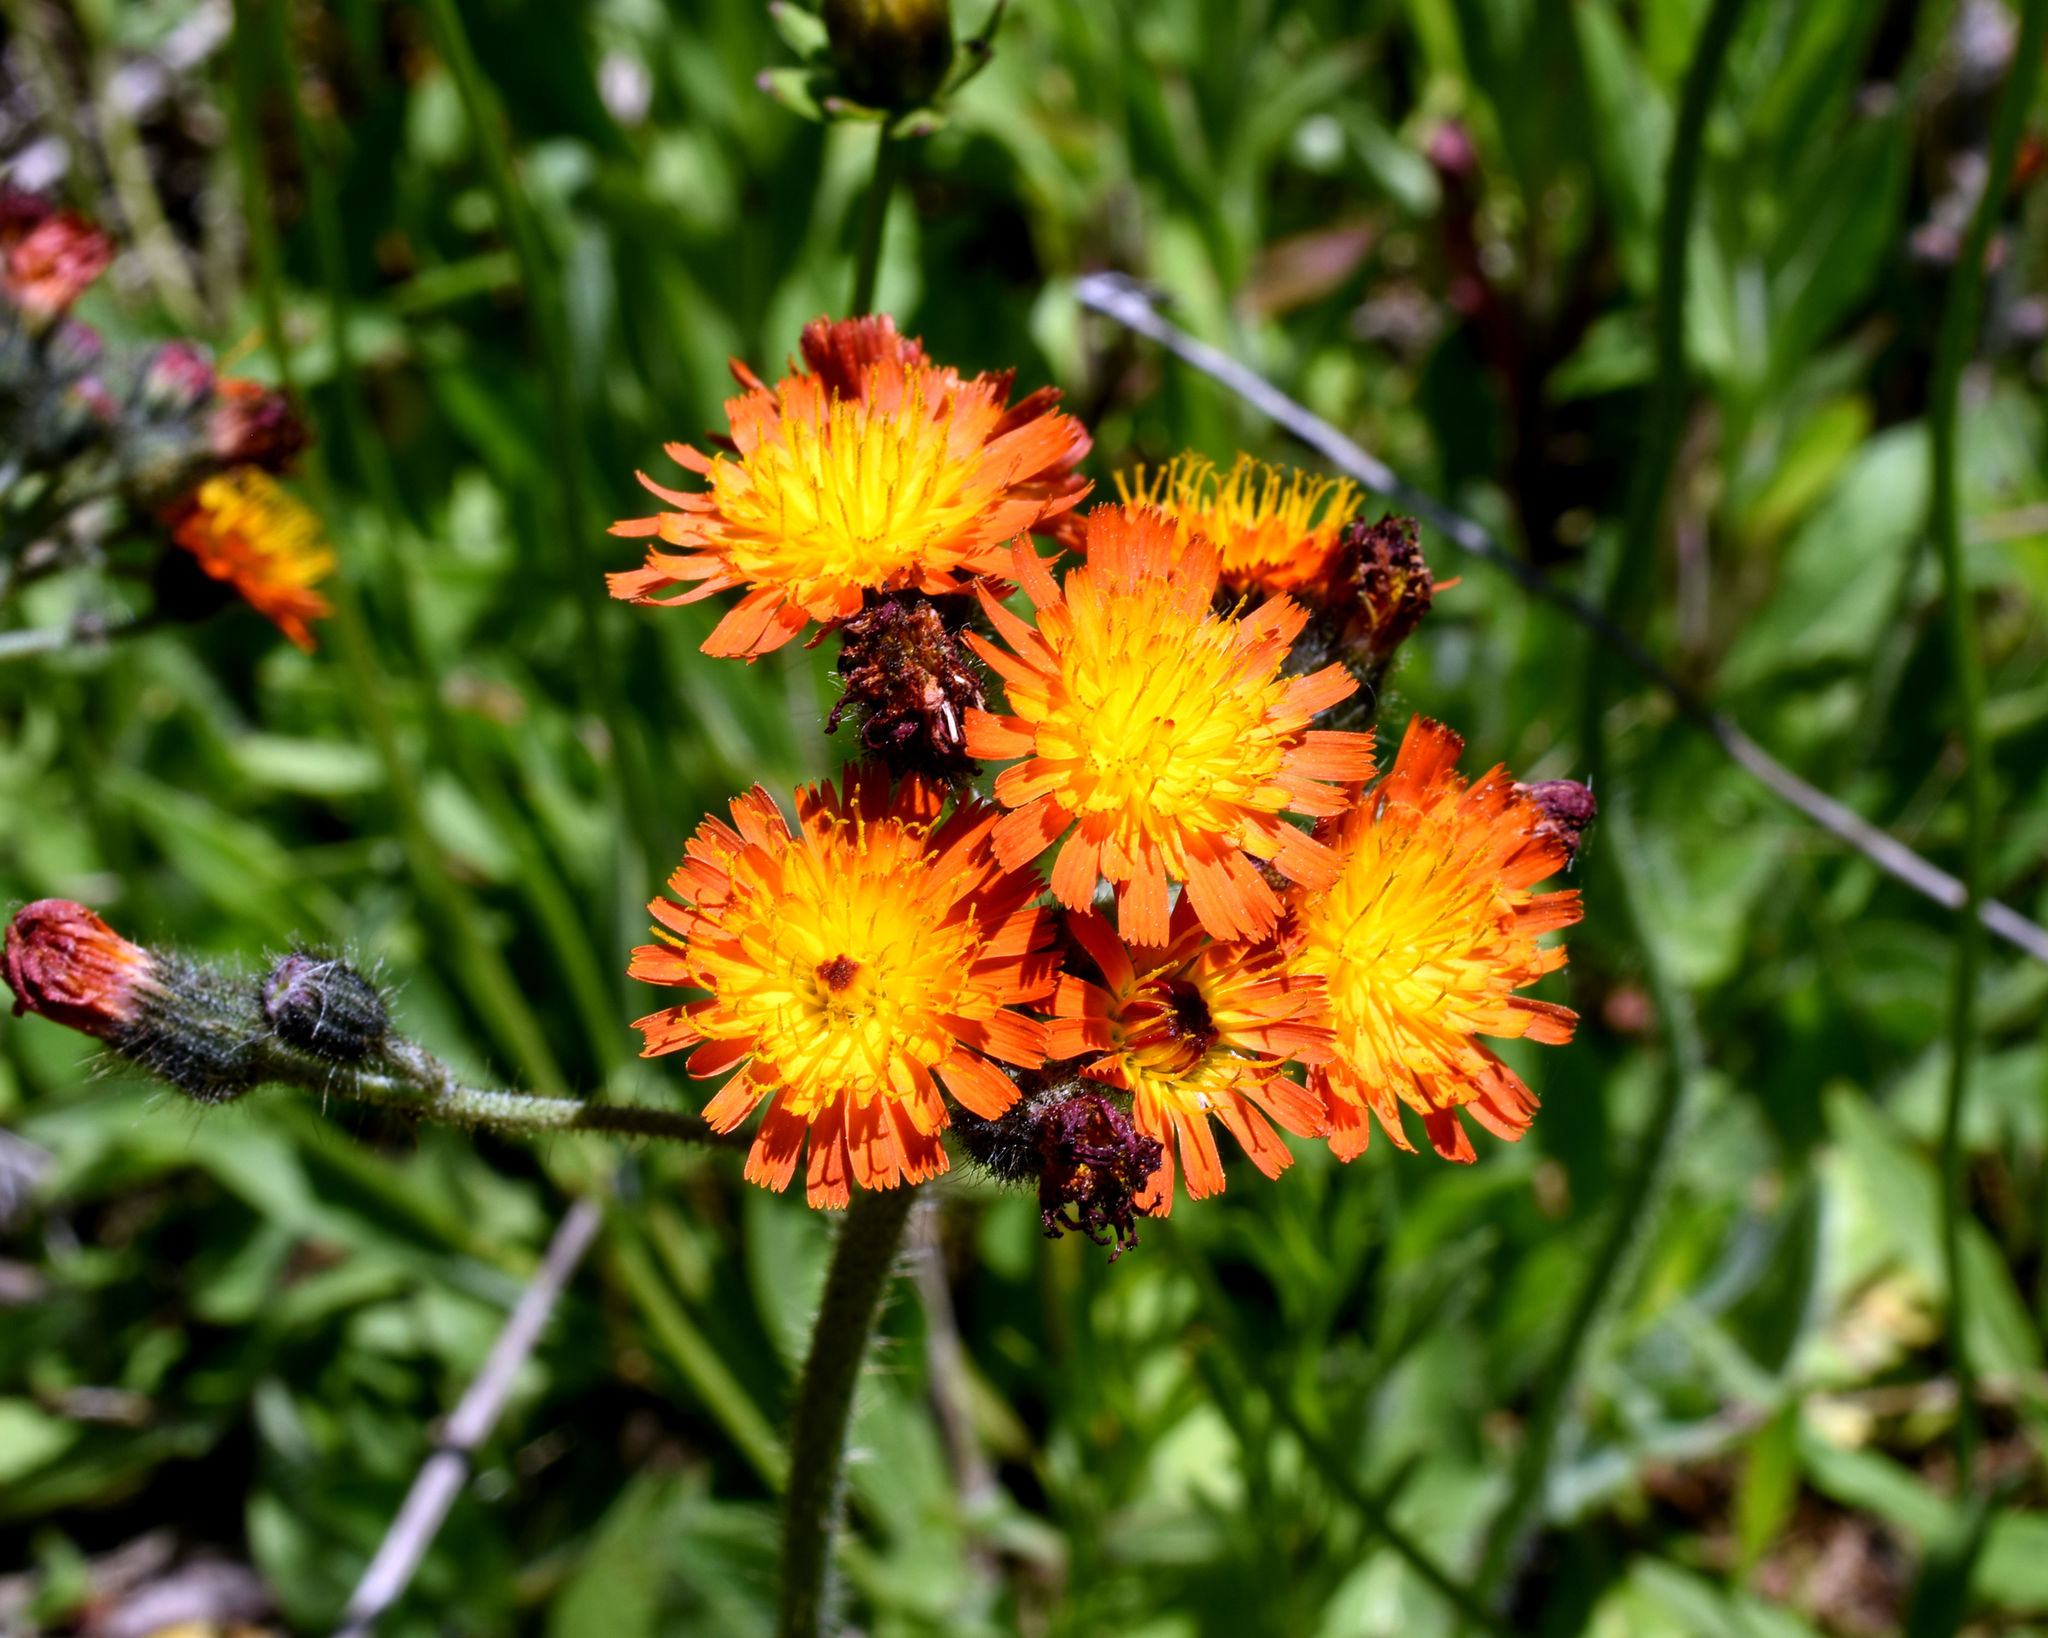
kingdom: Plantae
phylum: Tracheophyta
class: Magnoliopsida
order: Asterales
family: Asteraceae
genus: Pilosella
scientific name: Pilosella aurantiaca
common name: Fox-and-cubs
